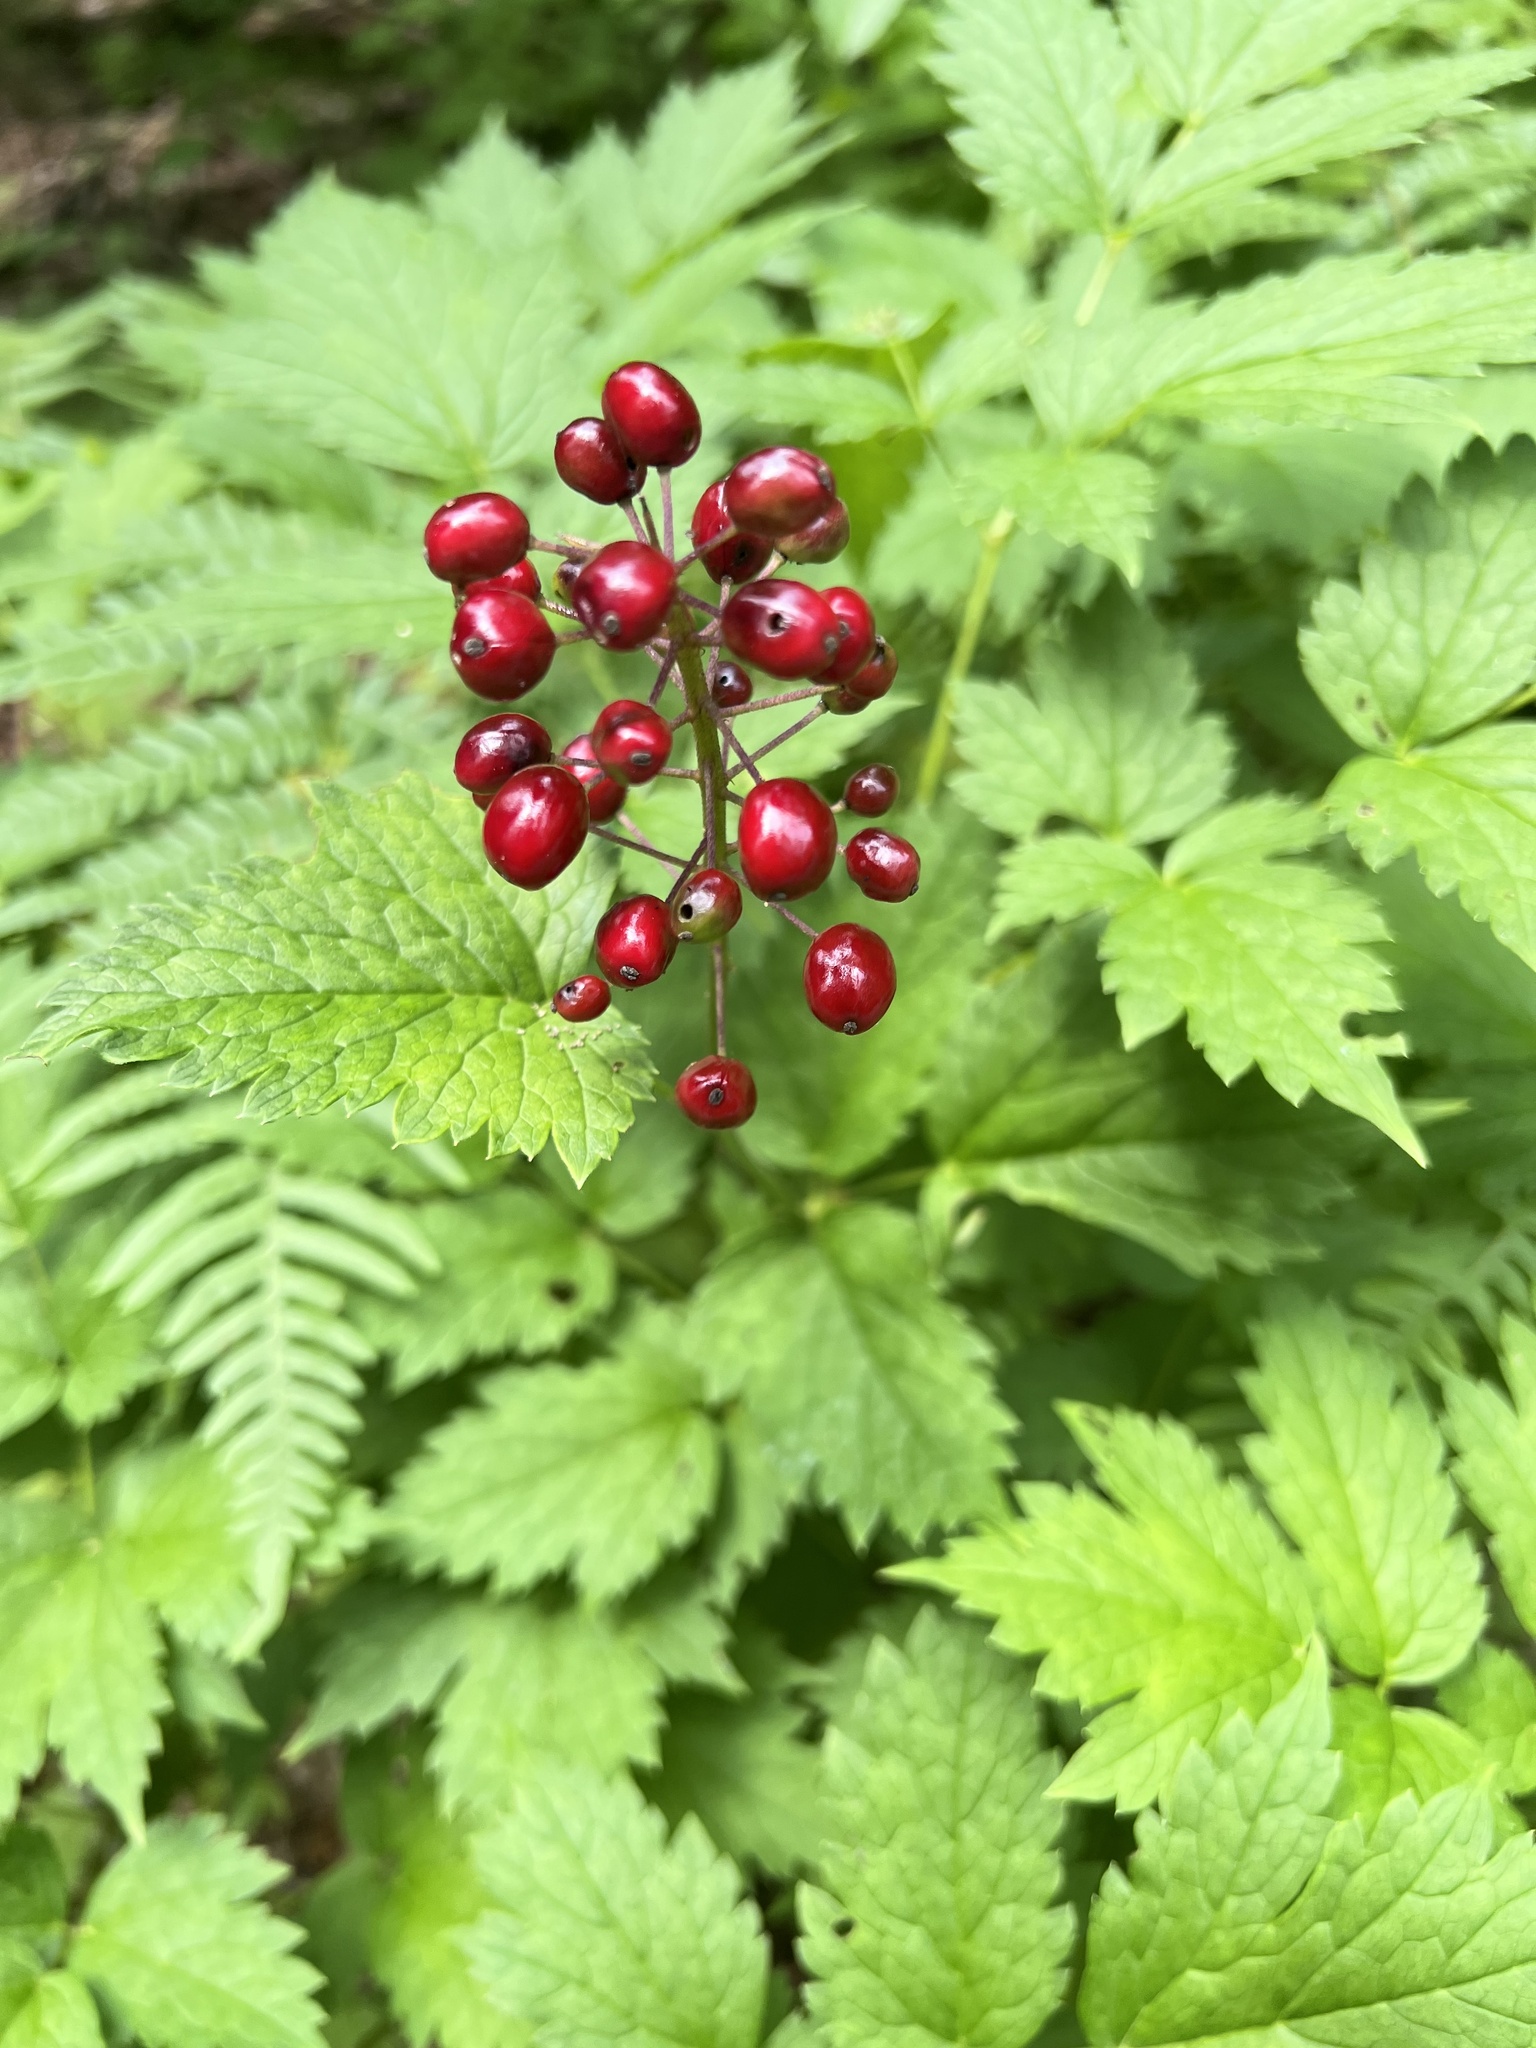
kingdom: Plantae
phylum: Tracheophyta
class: Magnoliopsida
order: Ranunculales
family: Ranunculaceae
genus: Actaea
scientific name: Actaea rubra
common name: Red baneberry
